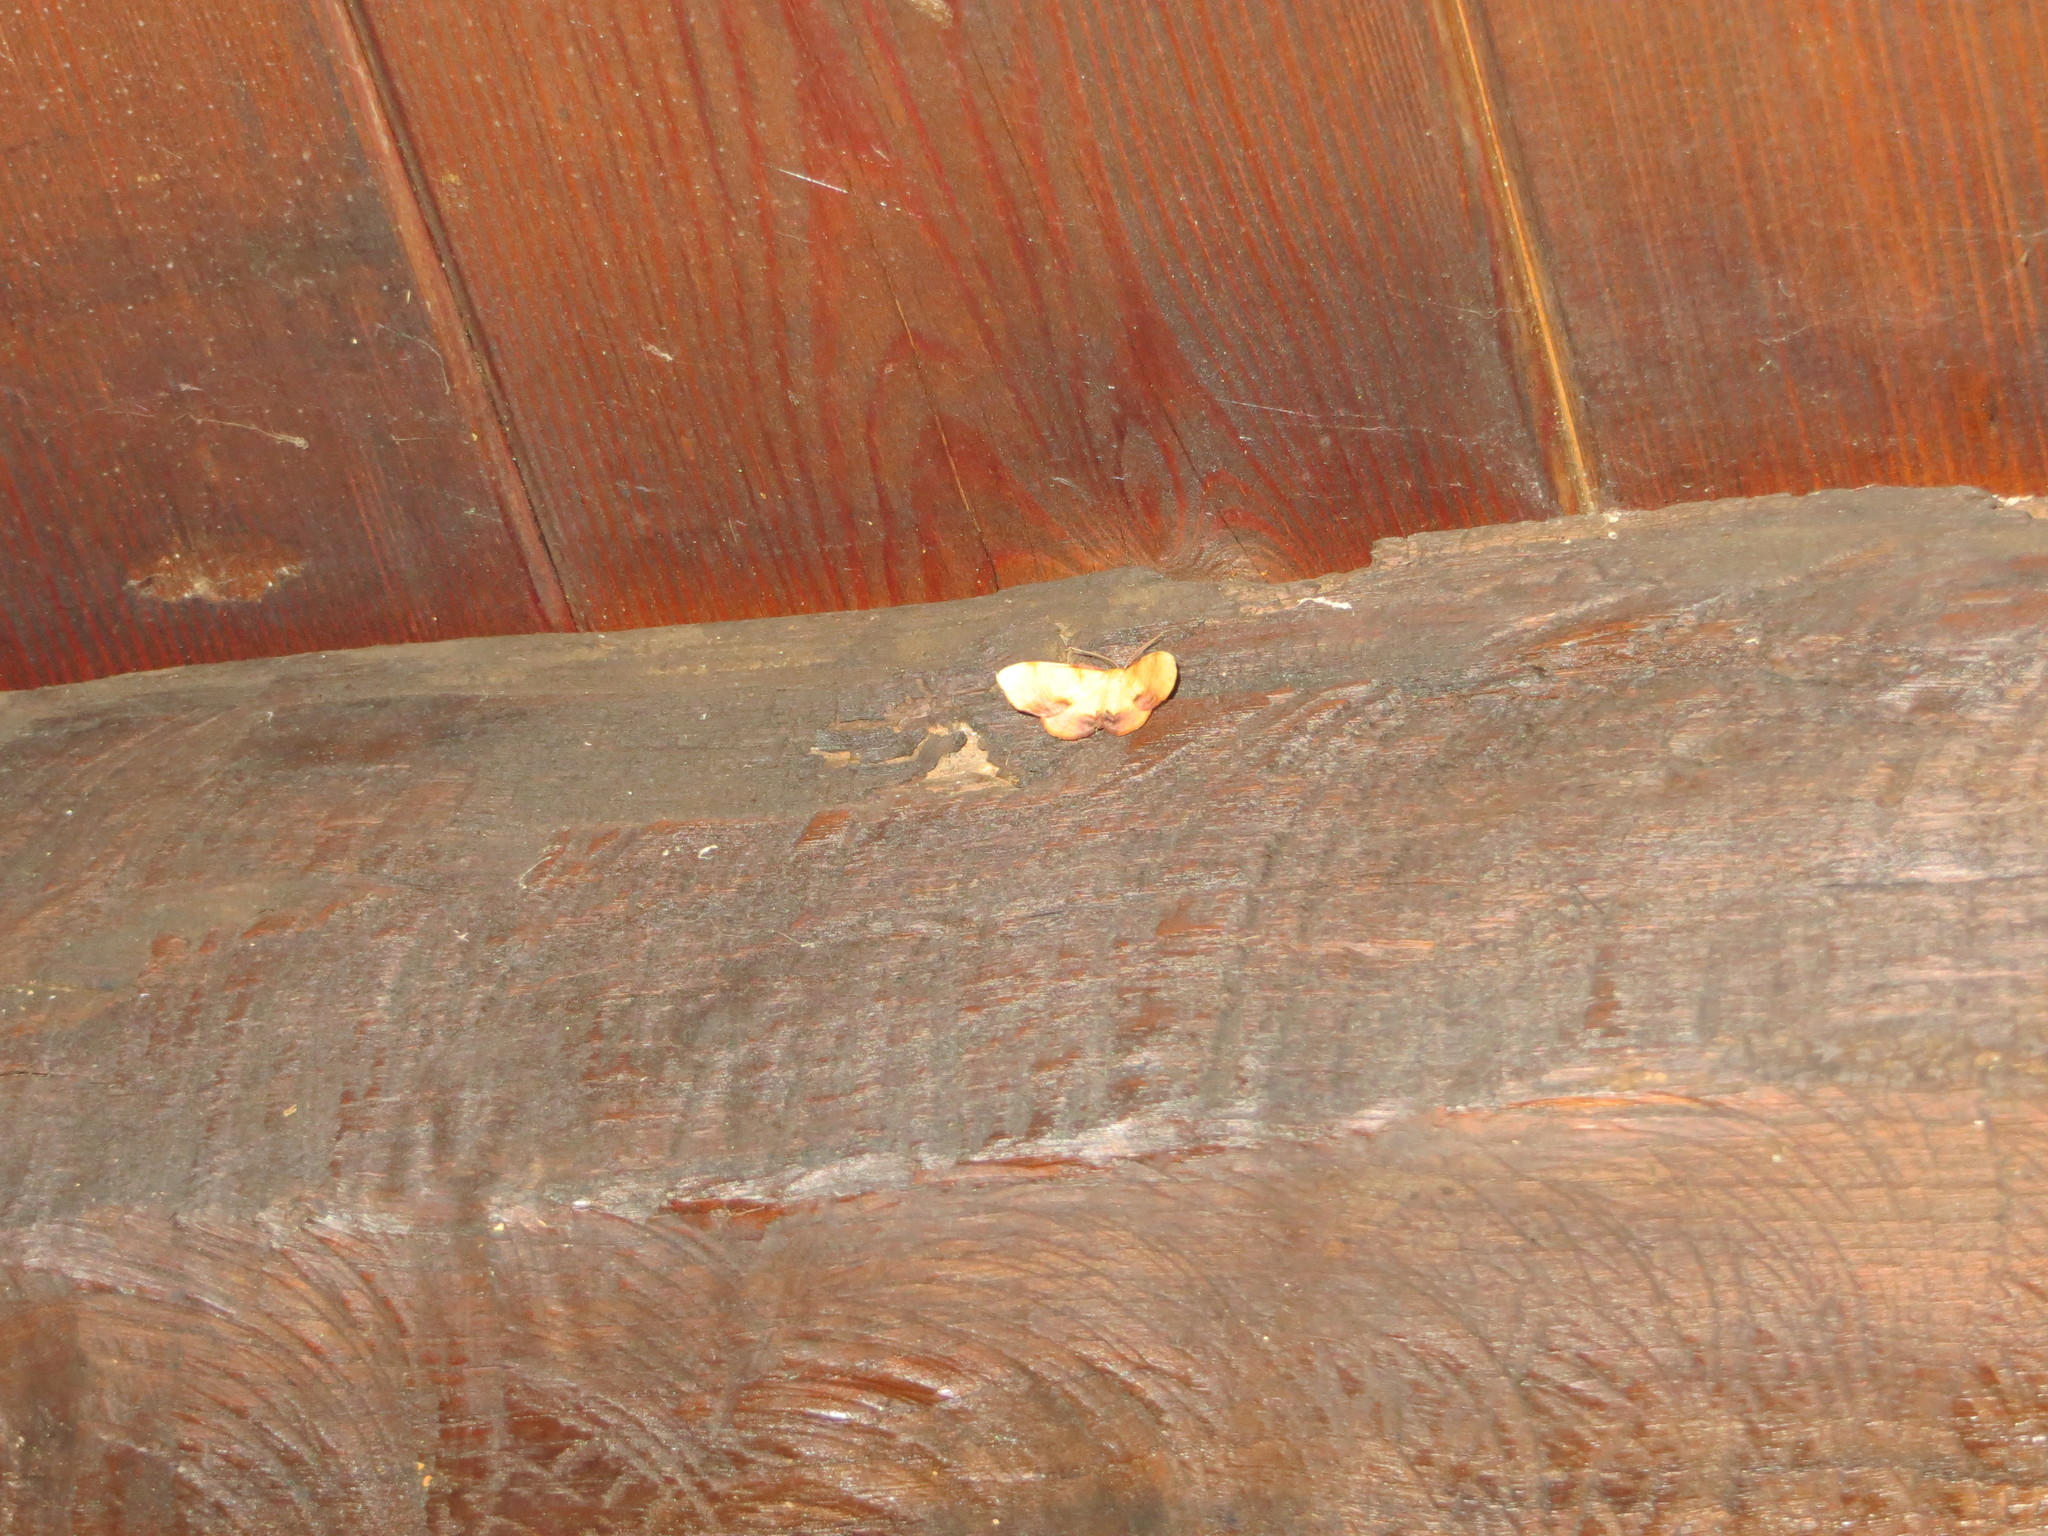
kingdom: Animalia
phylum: Arthropoda
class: Insecta
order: Lepidoptera
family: Geometridae
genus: Plagodis
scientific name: Plagodis dolabraria
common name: Scorched wing
